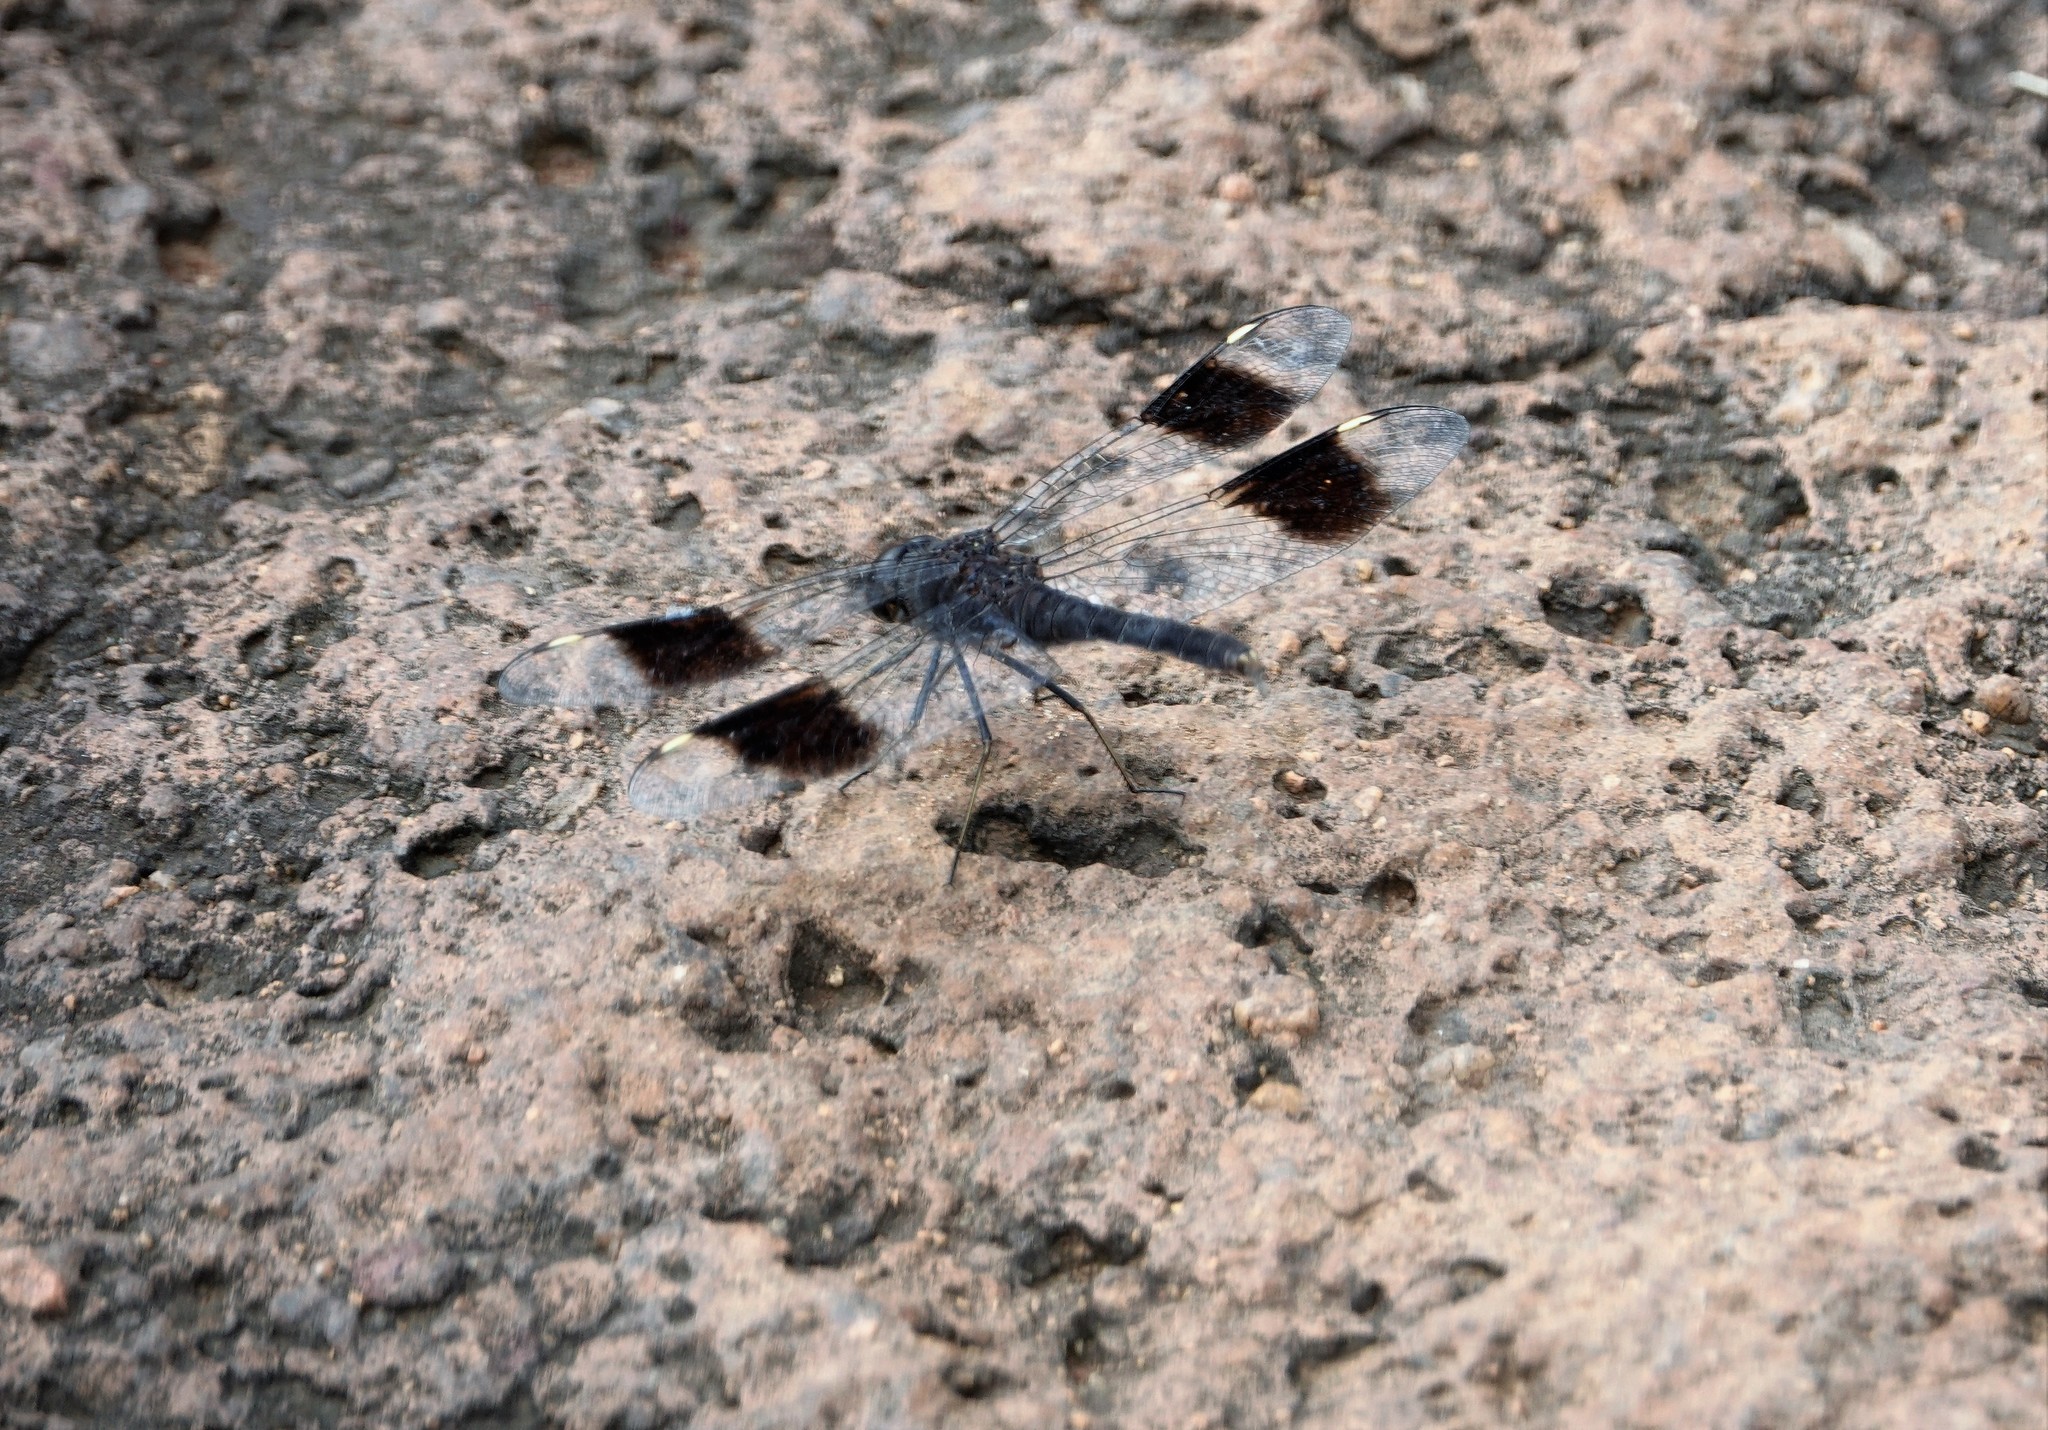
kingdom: Animalia
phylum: Arthropoda
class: Insecta
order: Odonata
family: Libellulidae
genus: Brachythemis
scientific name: Brachythemis impartita
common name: Banded groundling
